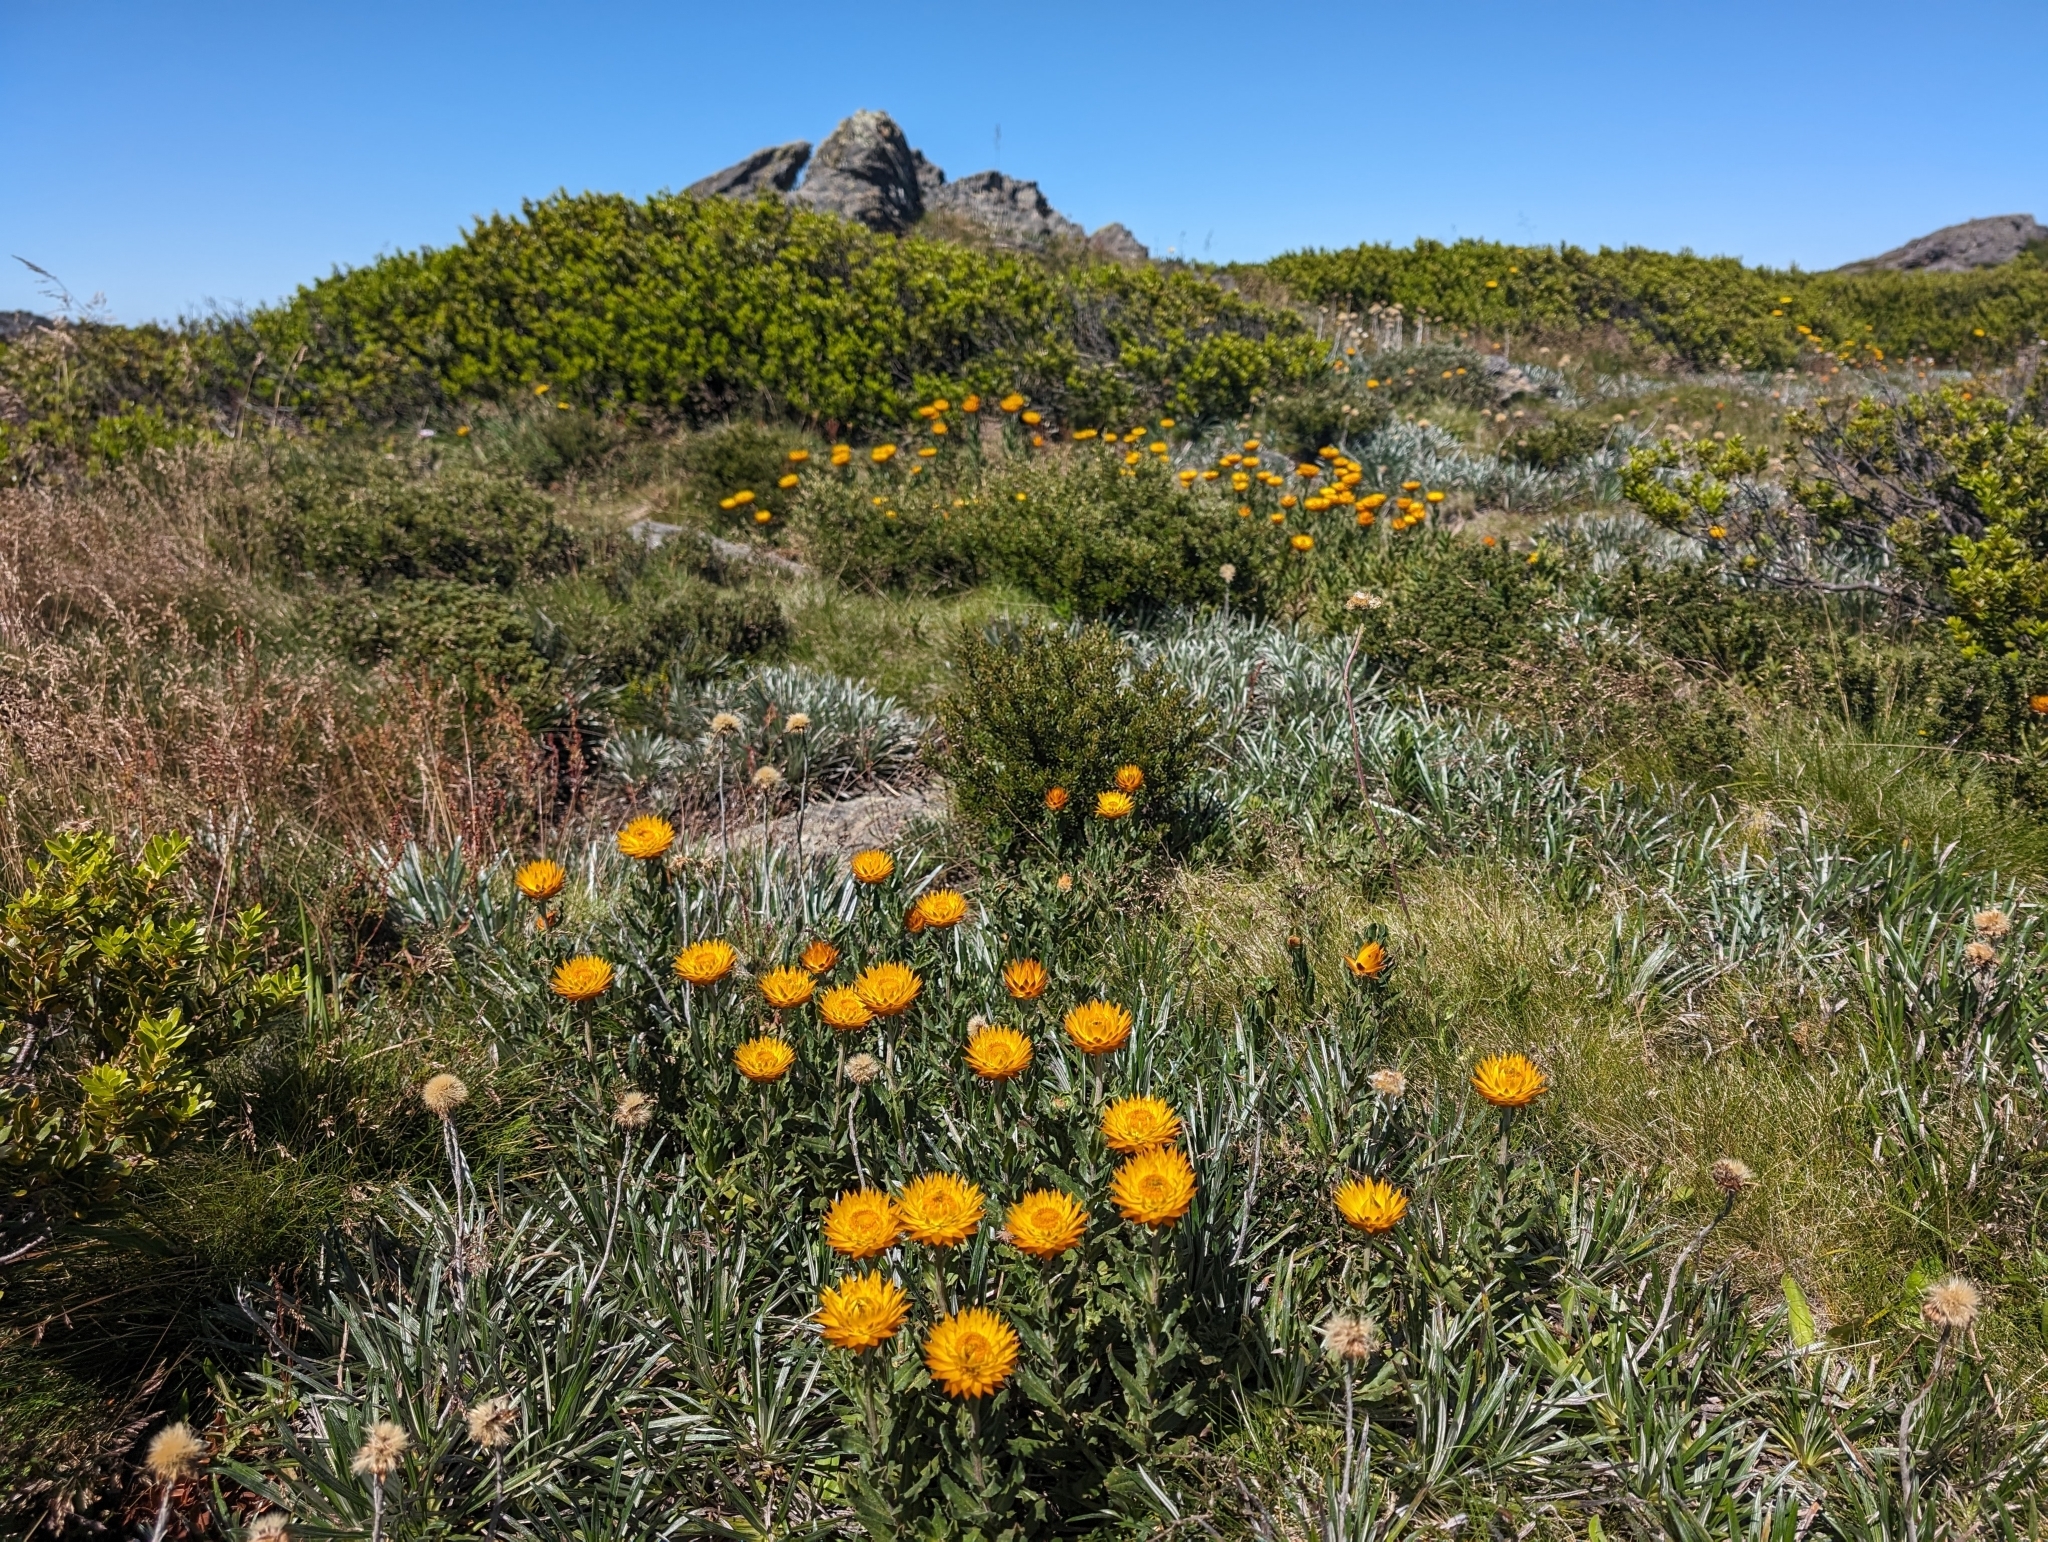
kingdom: Plantae
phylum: Tracheophyta
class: Magnoliopsida
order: Asterales
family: Asteraceae
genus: Xerochrysum
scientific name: Xerochrysum subundulatum
